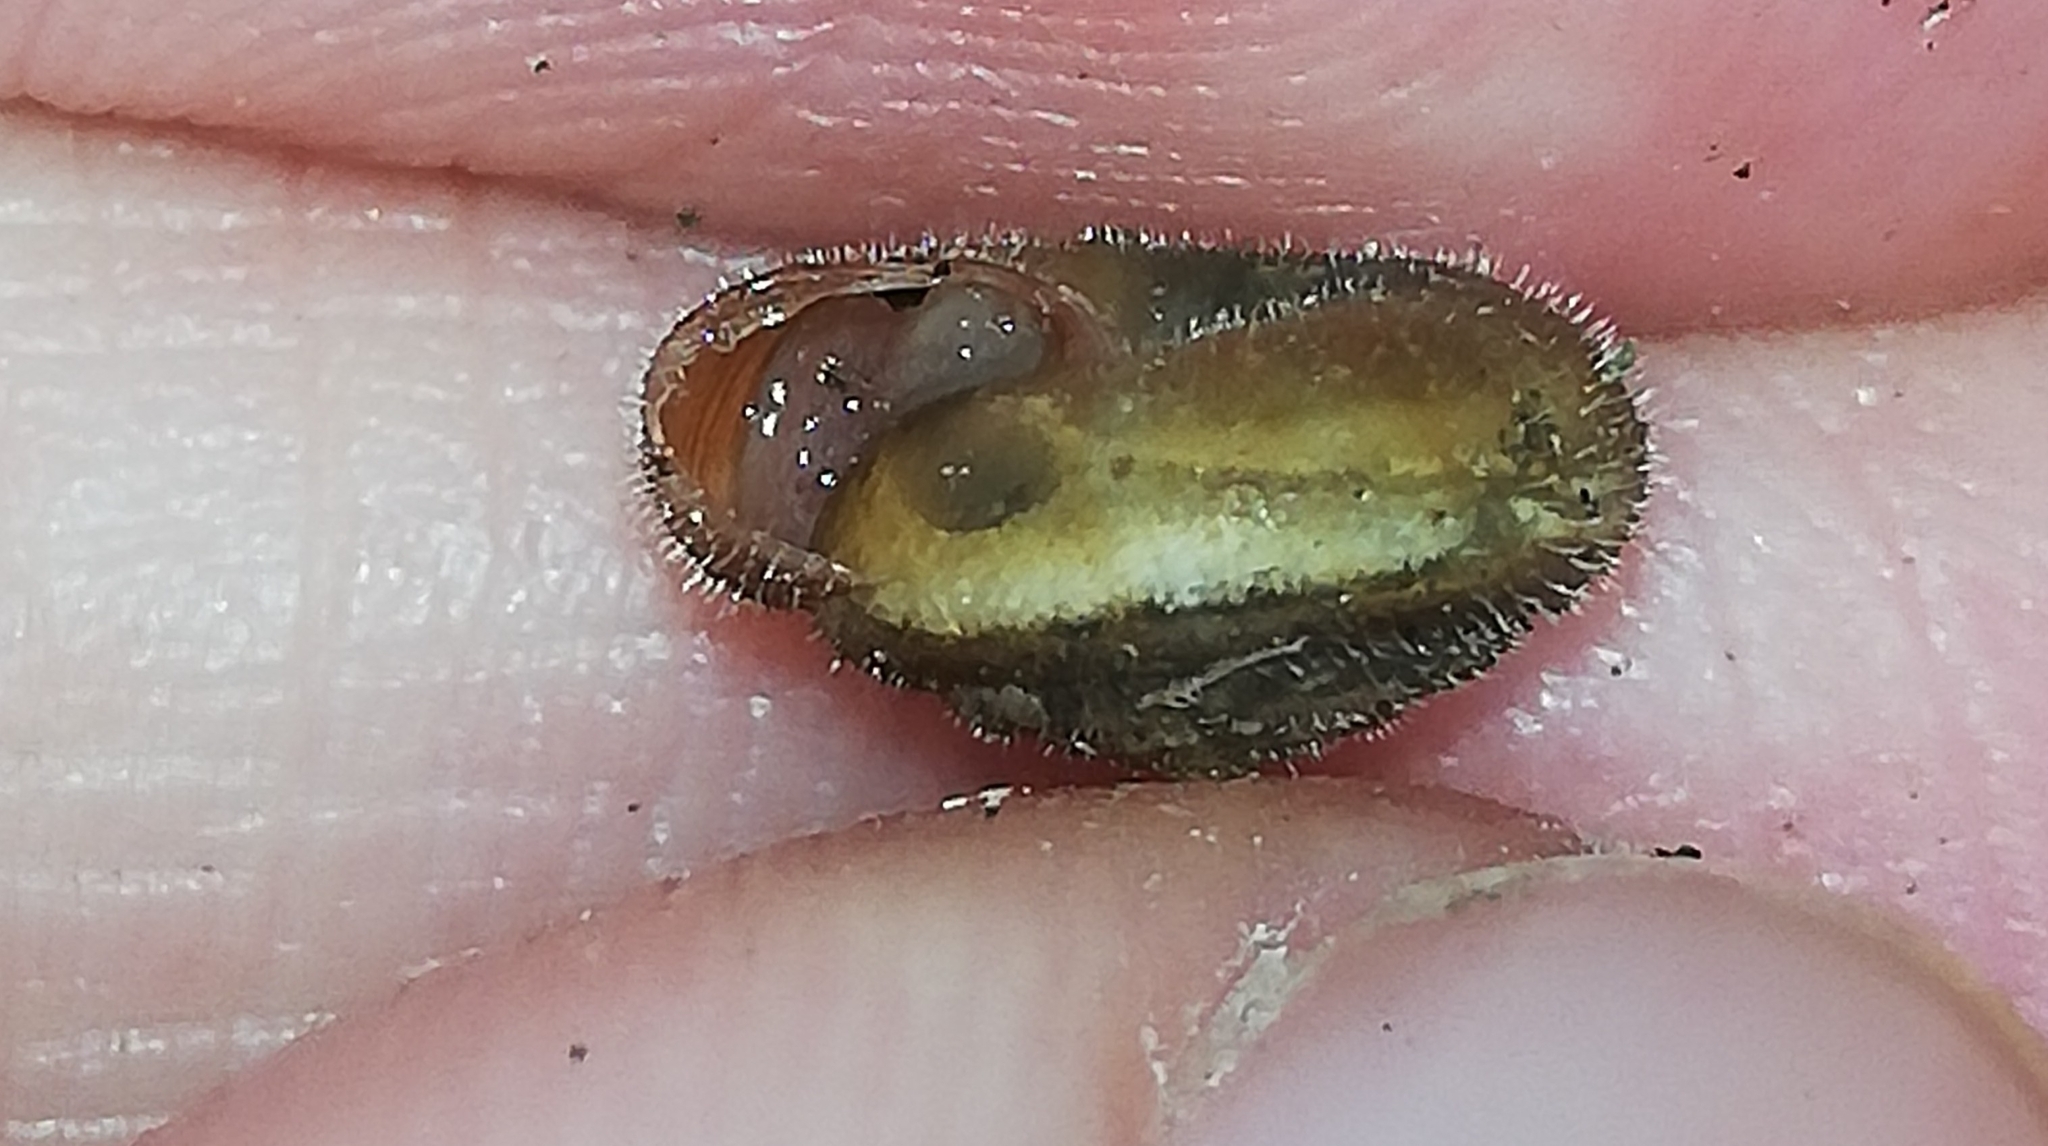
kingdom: Animalia
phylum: Mollusca
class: Gastropoda
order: Stylommatophora
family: Hygromiidae
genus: Trochulus
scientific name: Trochulus hispidus
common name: Hairy snail
